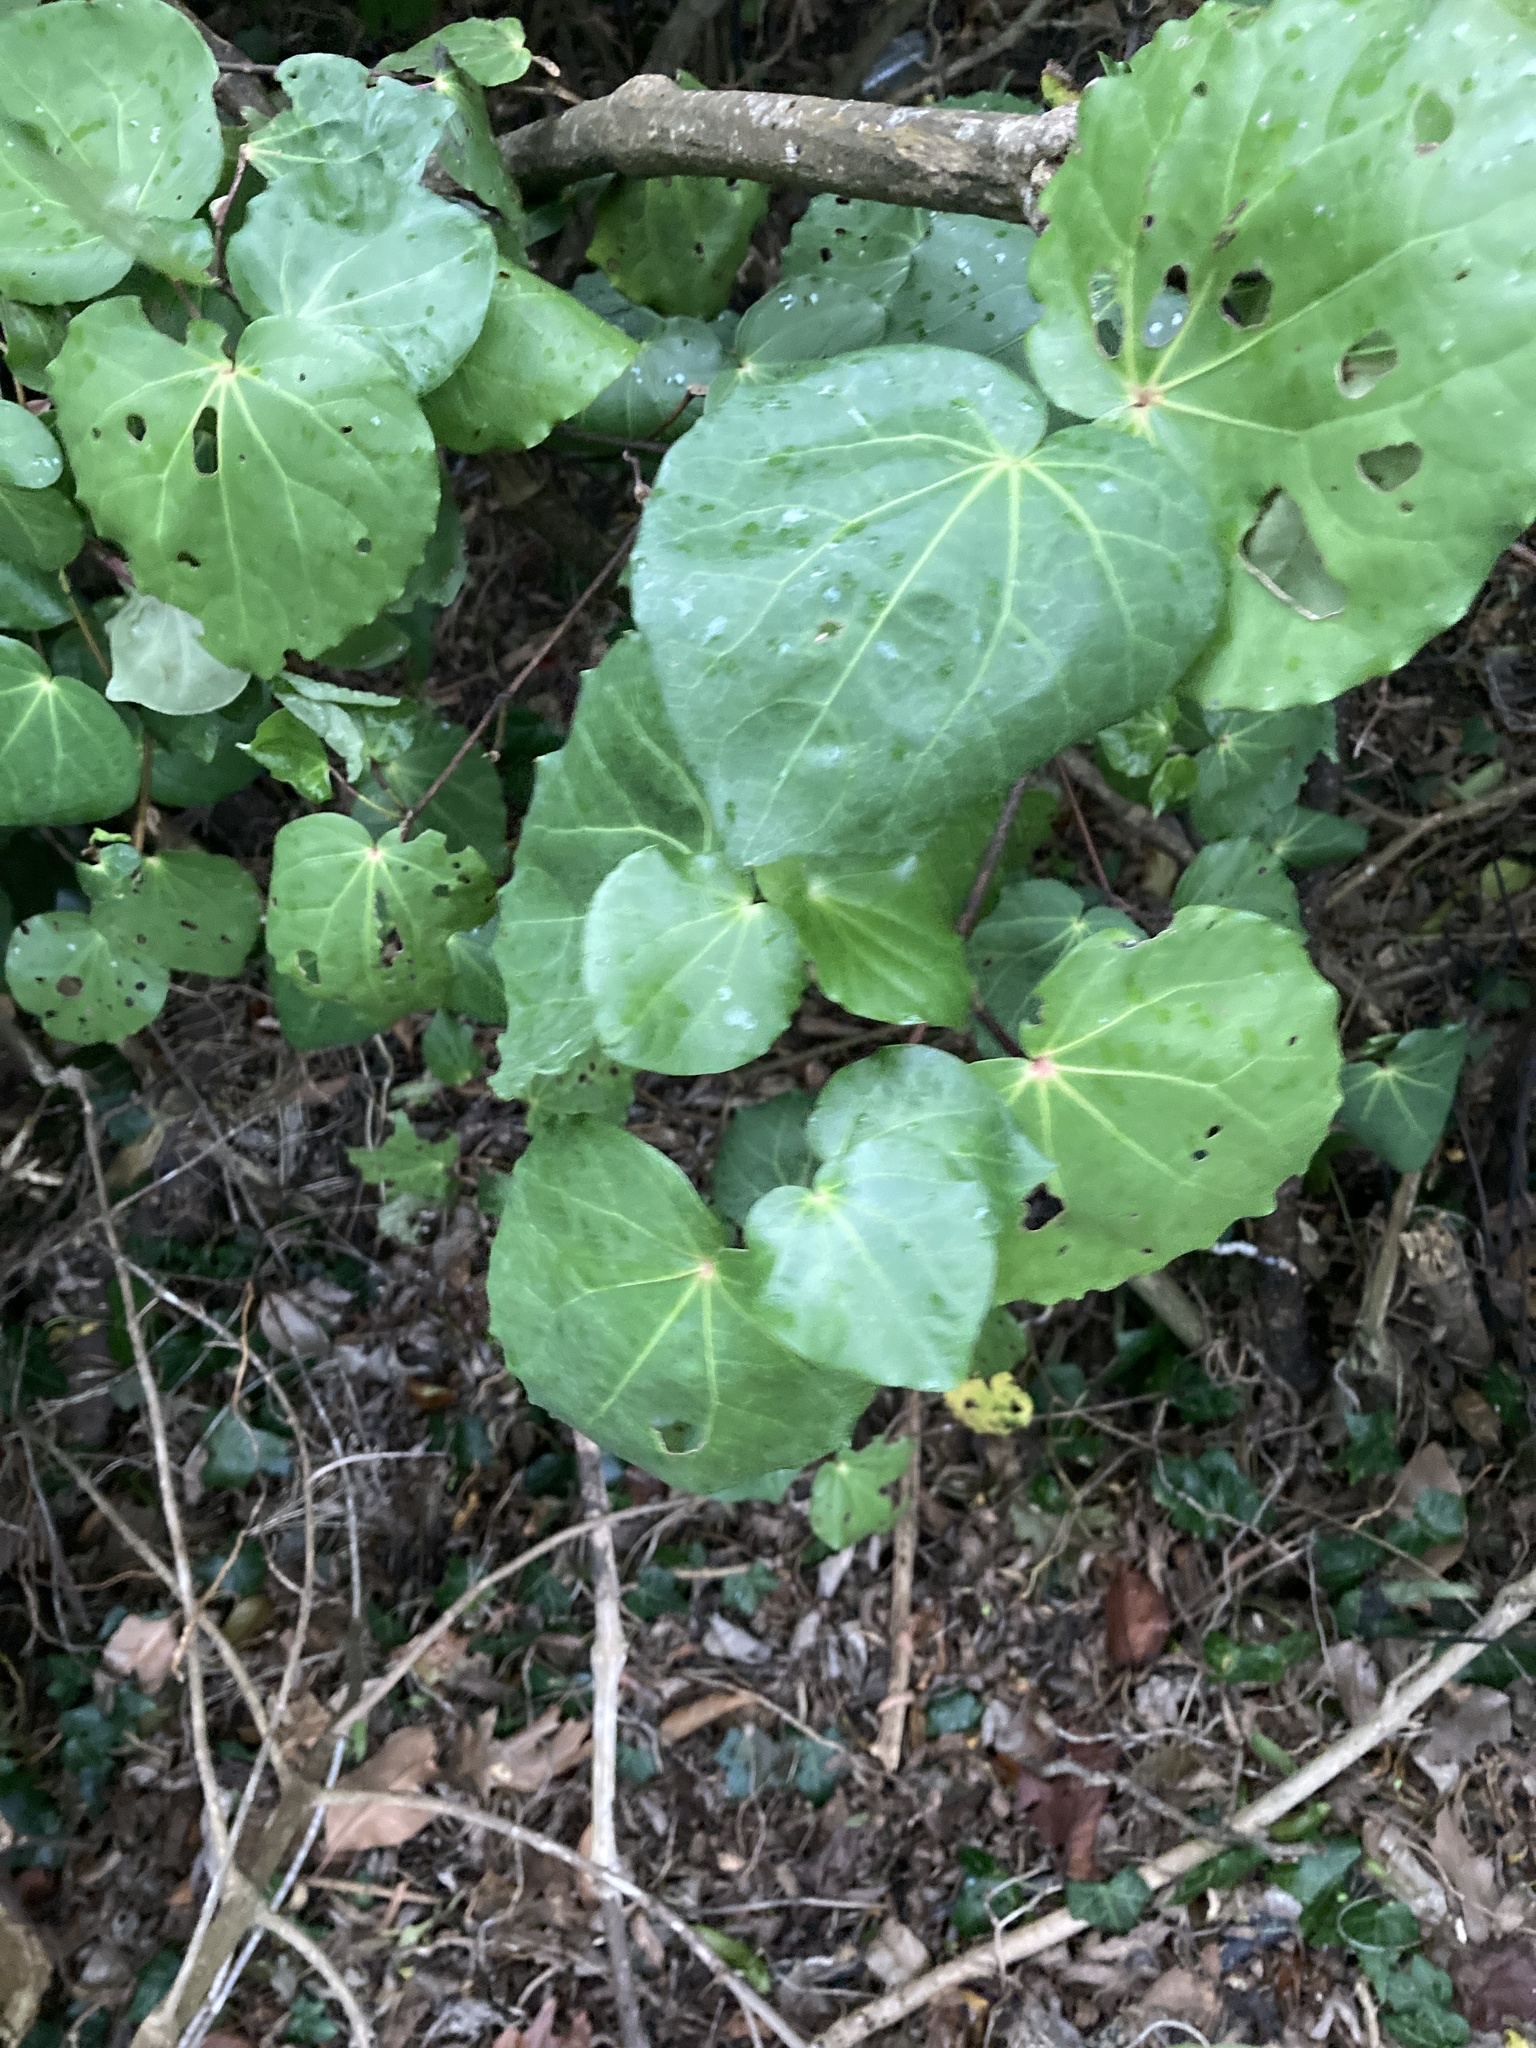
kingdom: Plantae
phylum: Tracheophyta
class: Magnoliopsida
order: Piperales
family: Piperaceae
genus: Macropiper
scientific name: Macropiper excelsum
